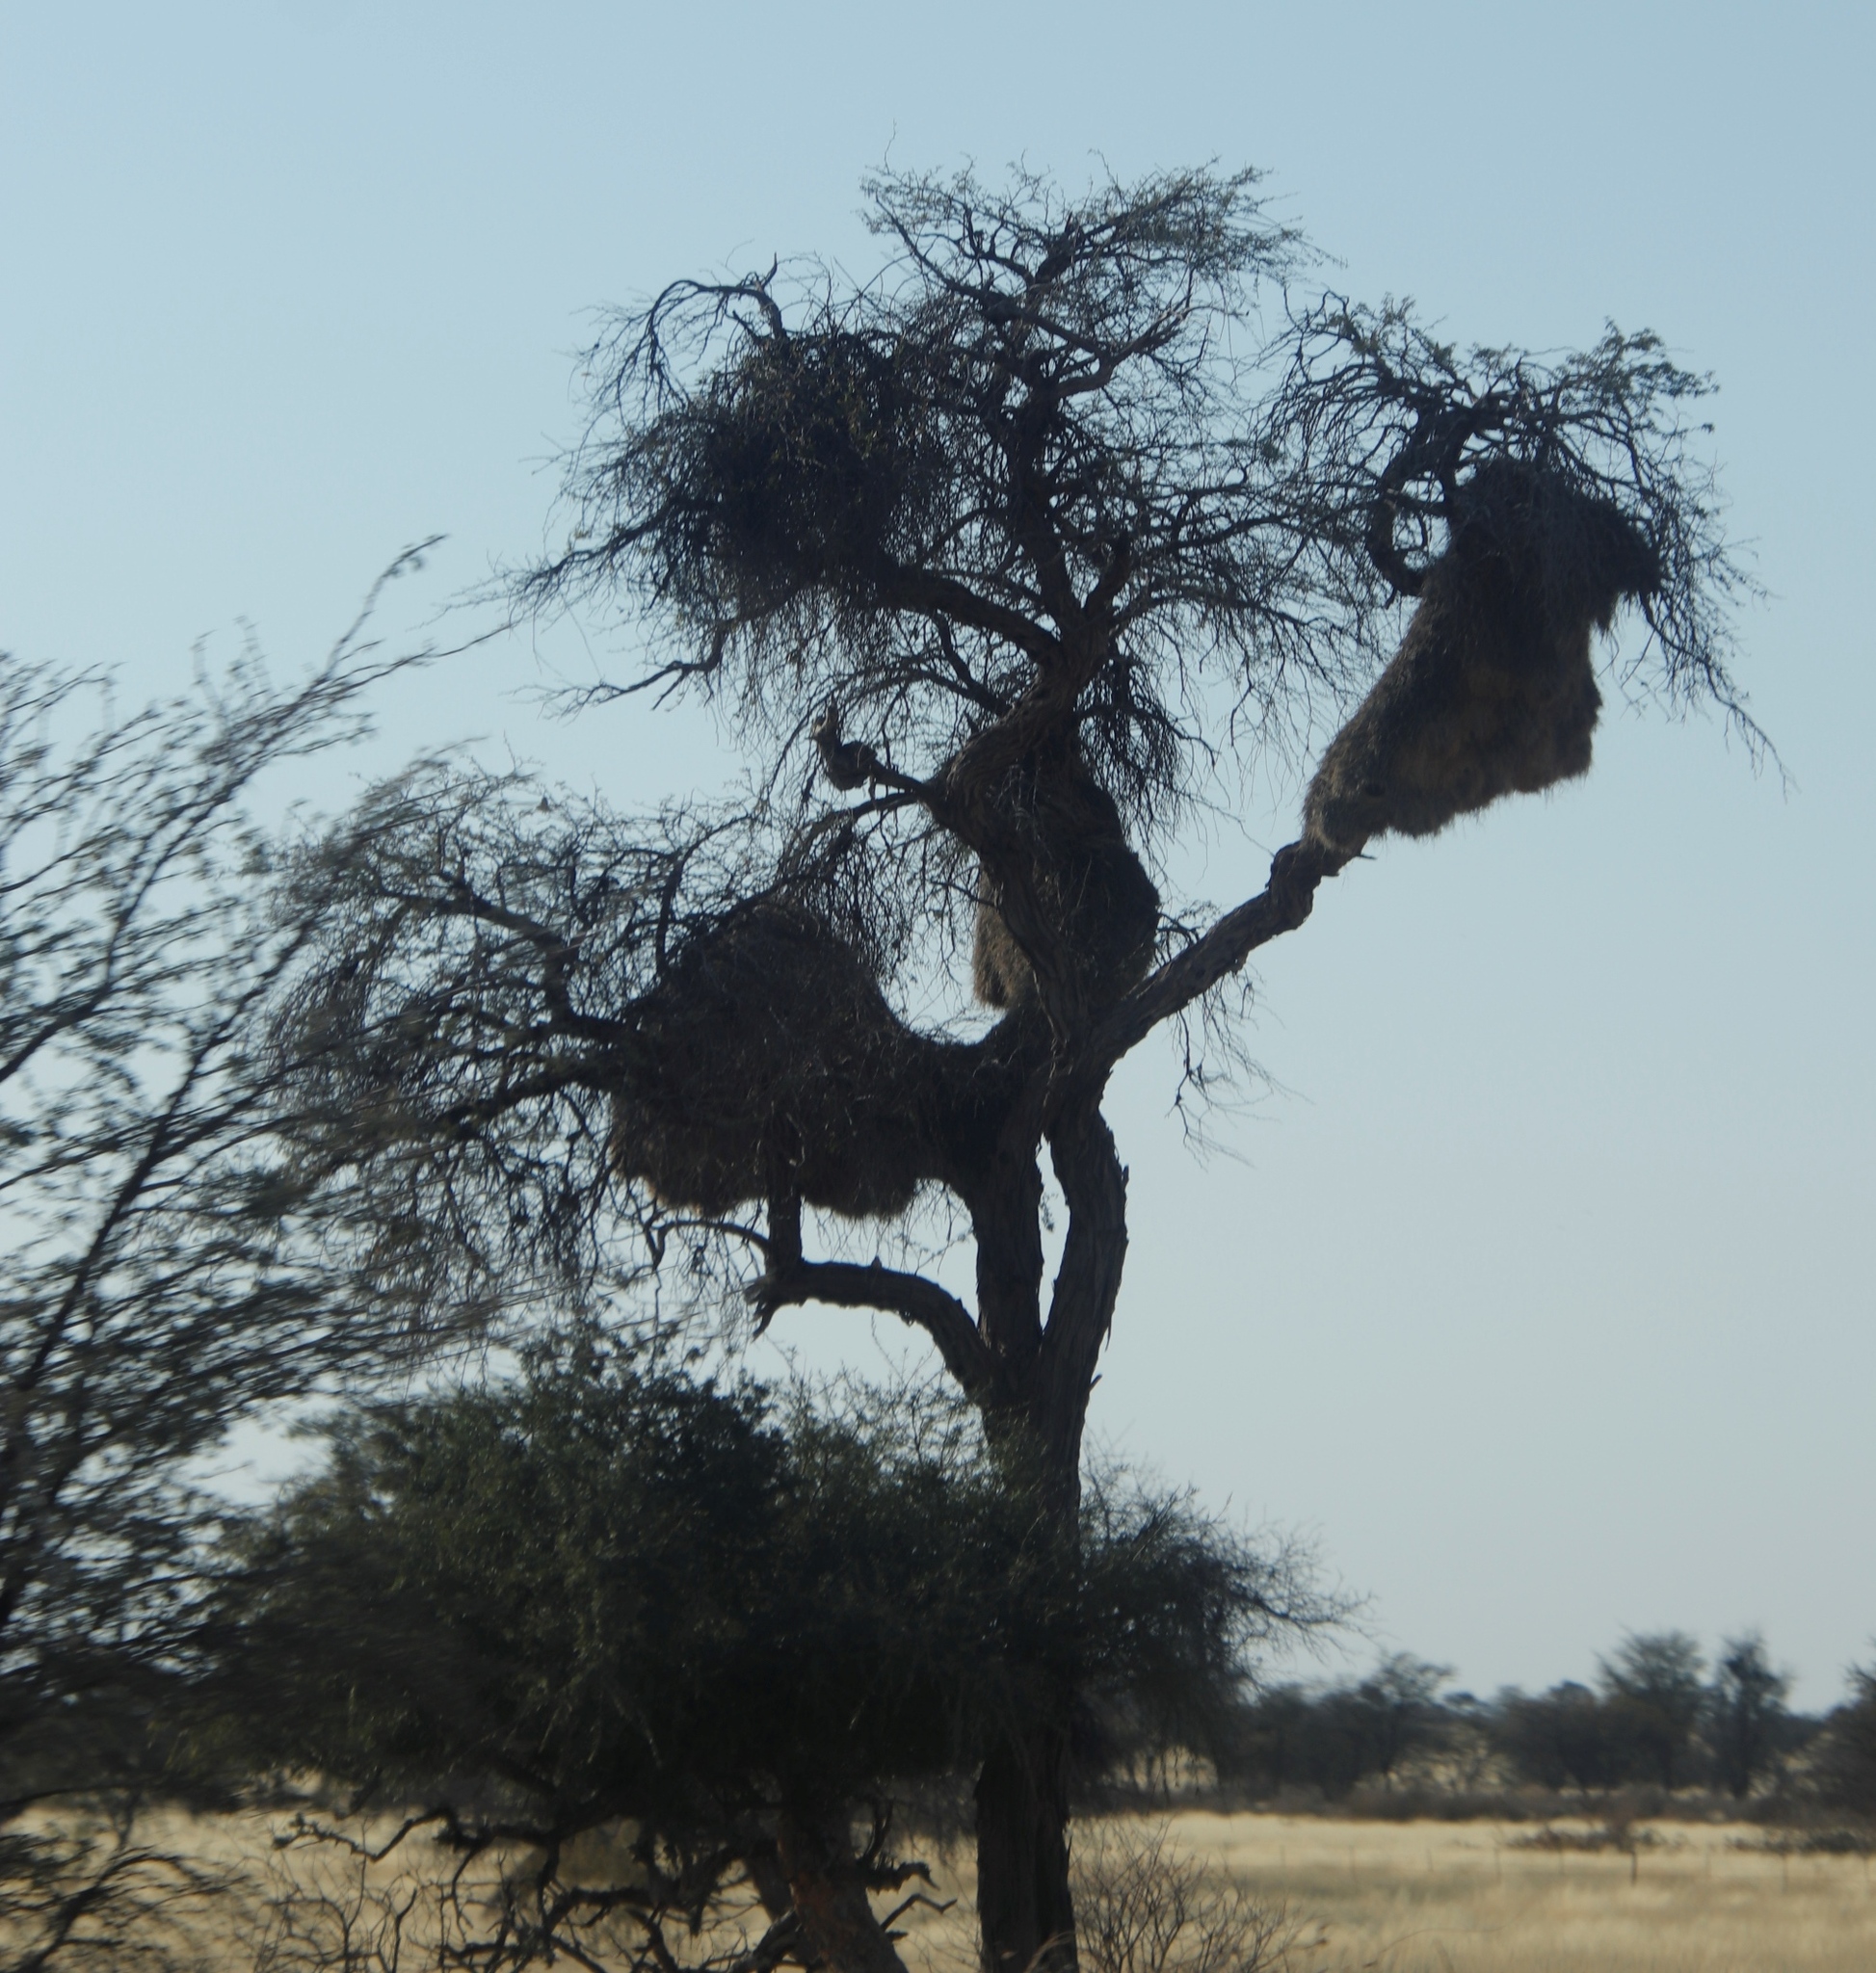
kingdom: Animalia
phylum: Chordata
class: Aves
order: Passeriformes
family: Passeridae
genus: Philetairus
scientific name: Philetairus socius
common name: Sociable weaver
